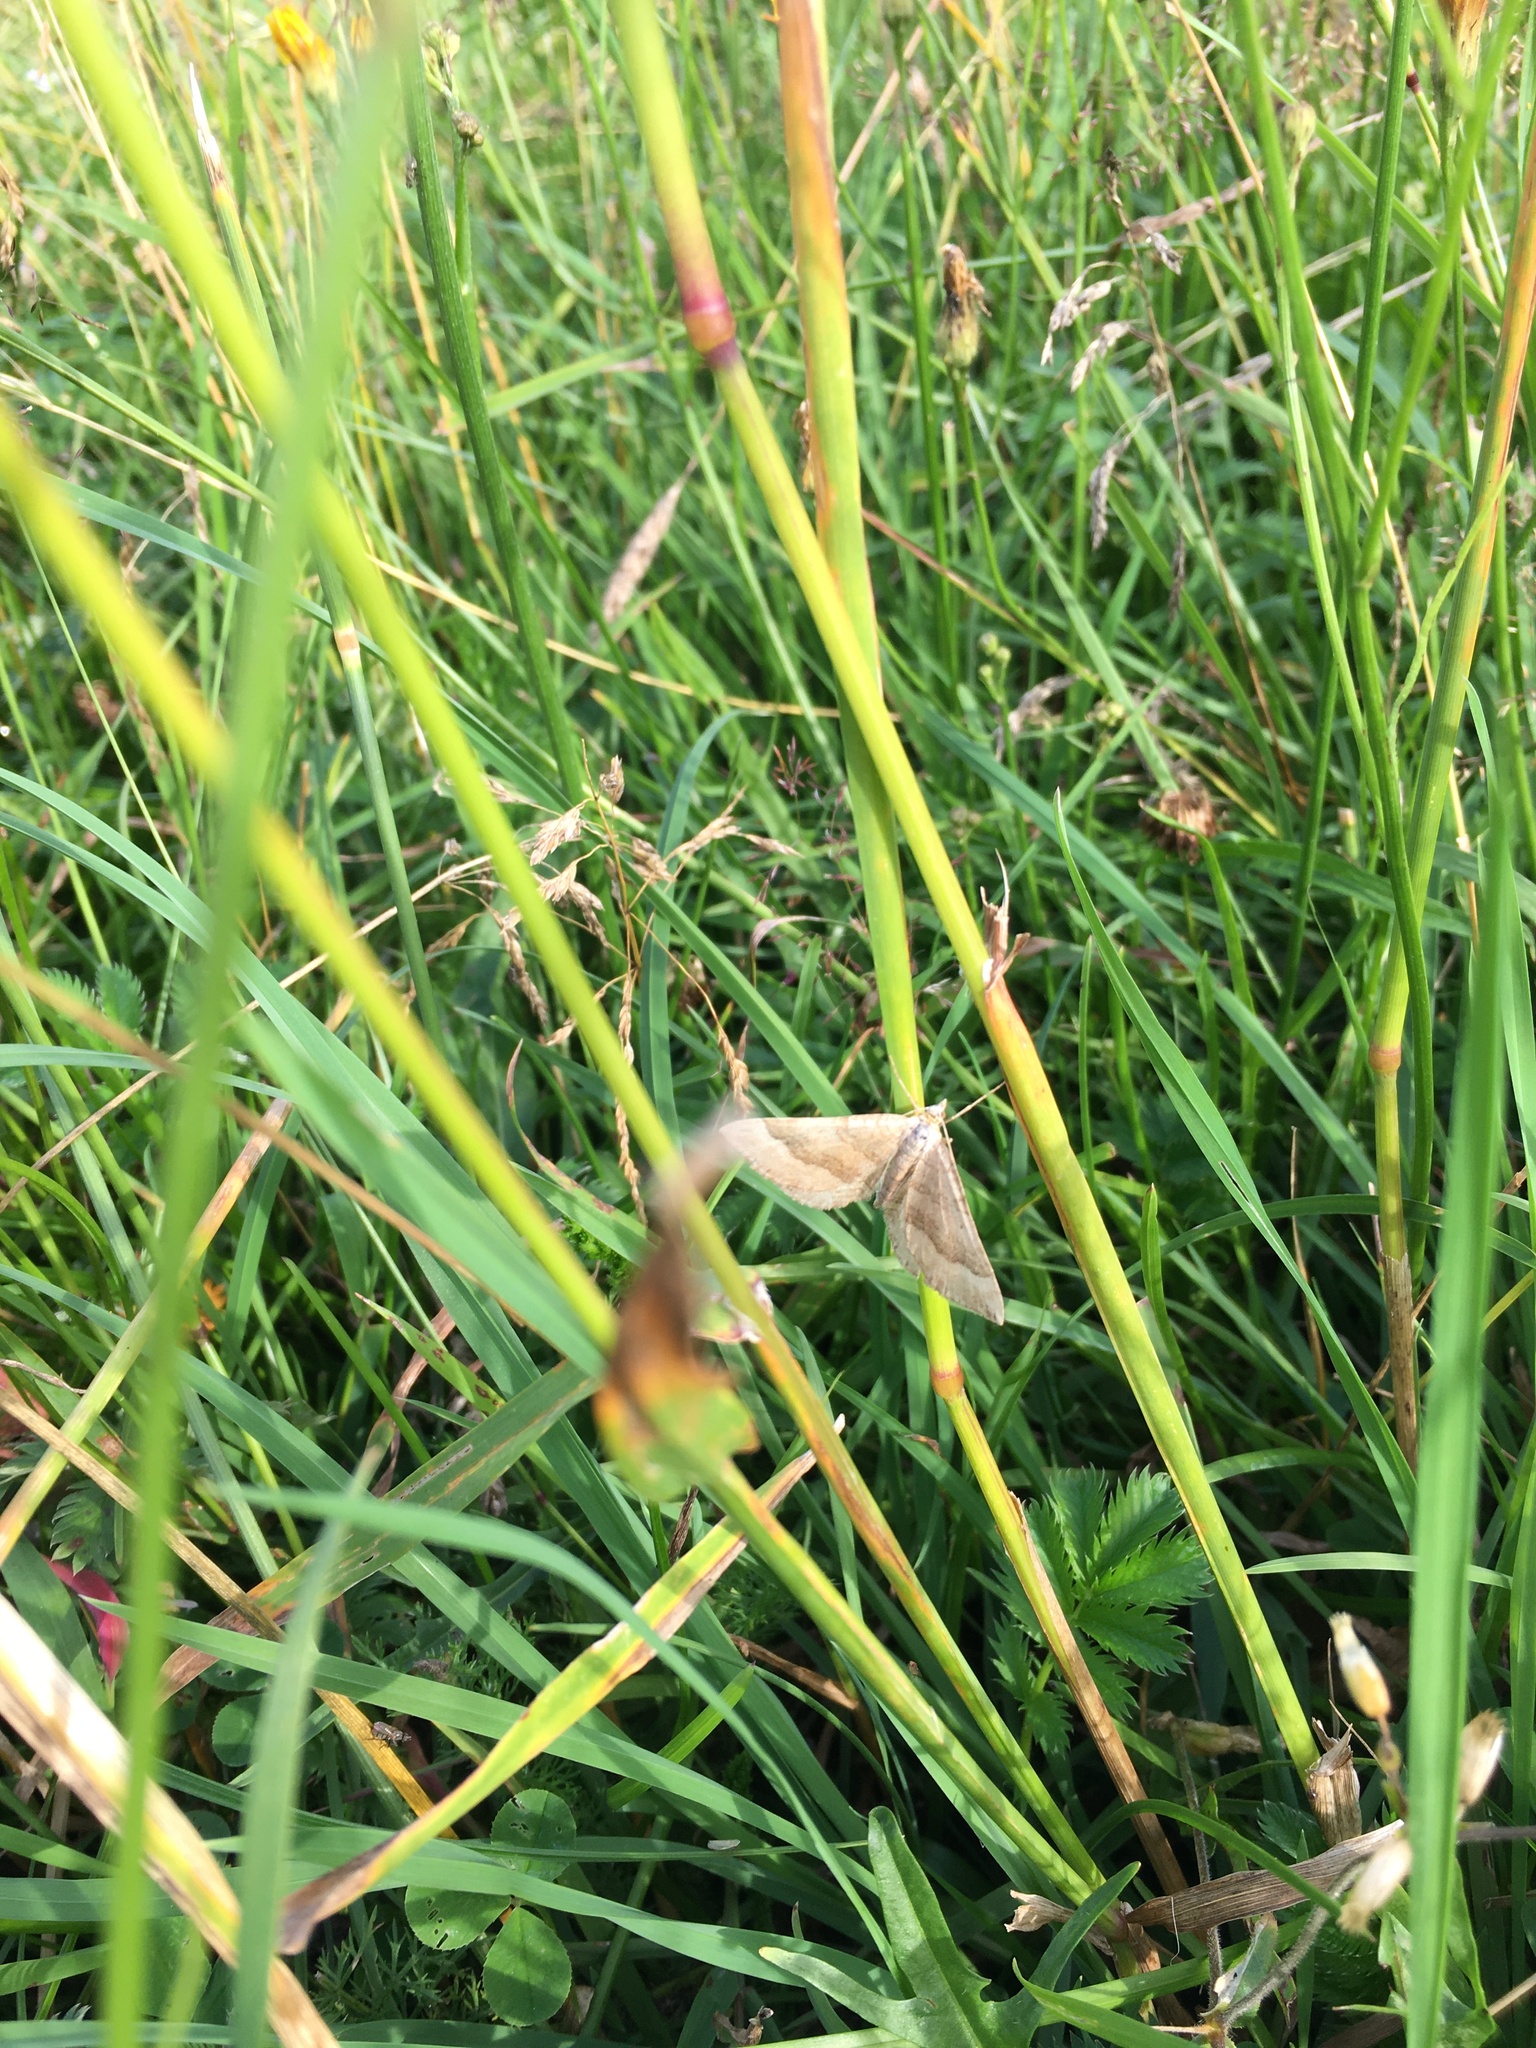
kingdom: Animalia
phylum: Arthropoda
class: Insecta
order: Lepidoptera
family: Geometridae
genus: Scotopteryx
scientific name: Scotopteryx chenopodiata
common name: Shaded broad-bar
